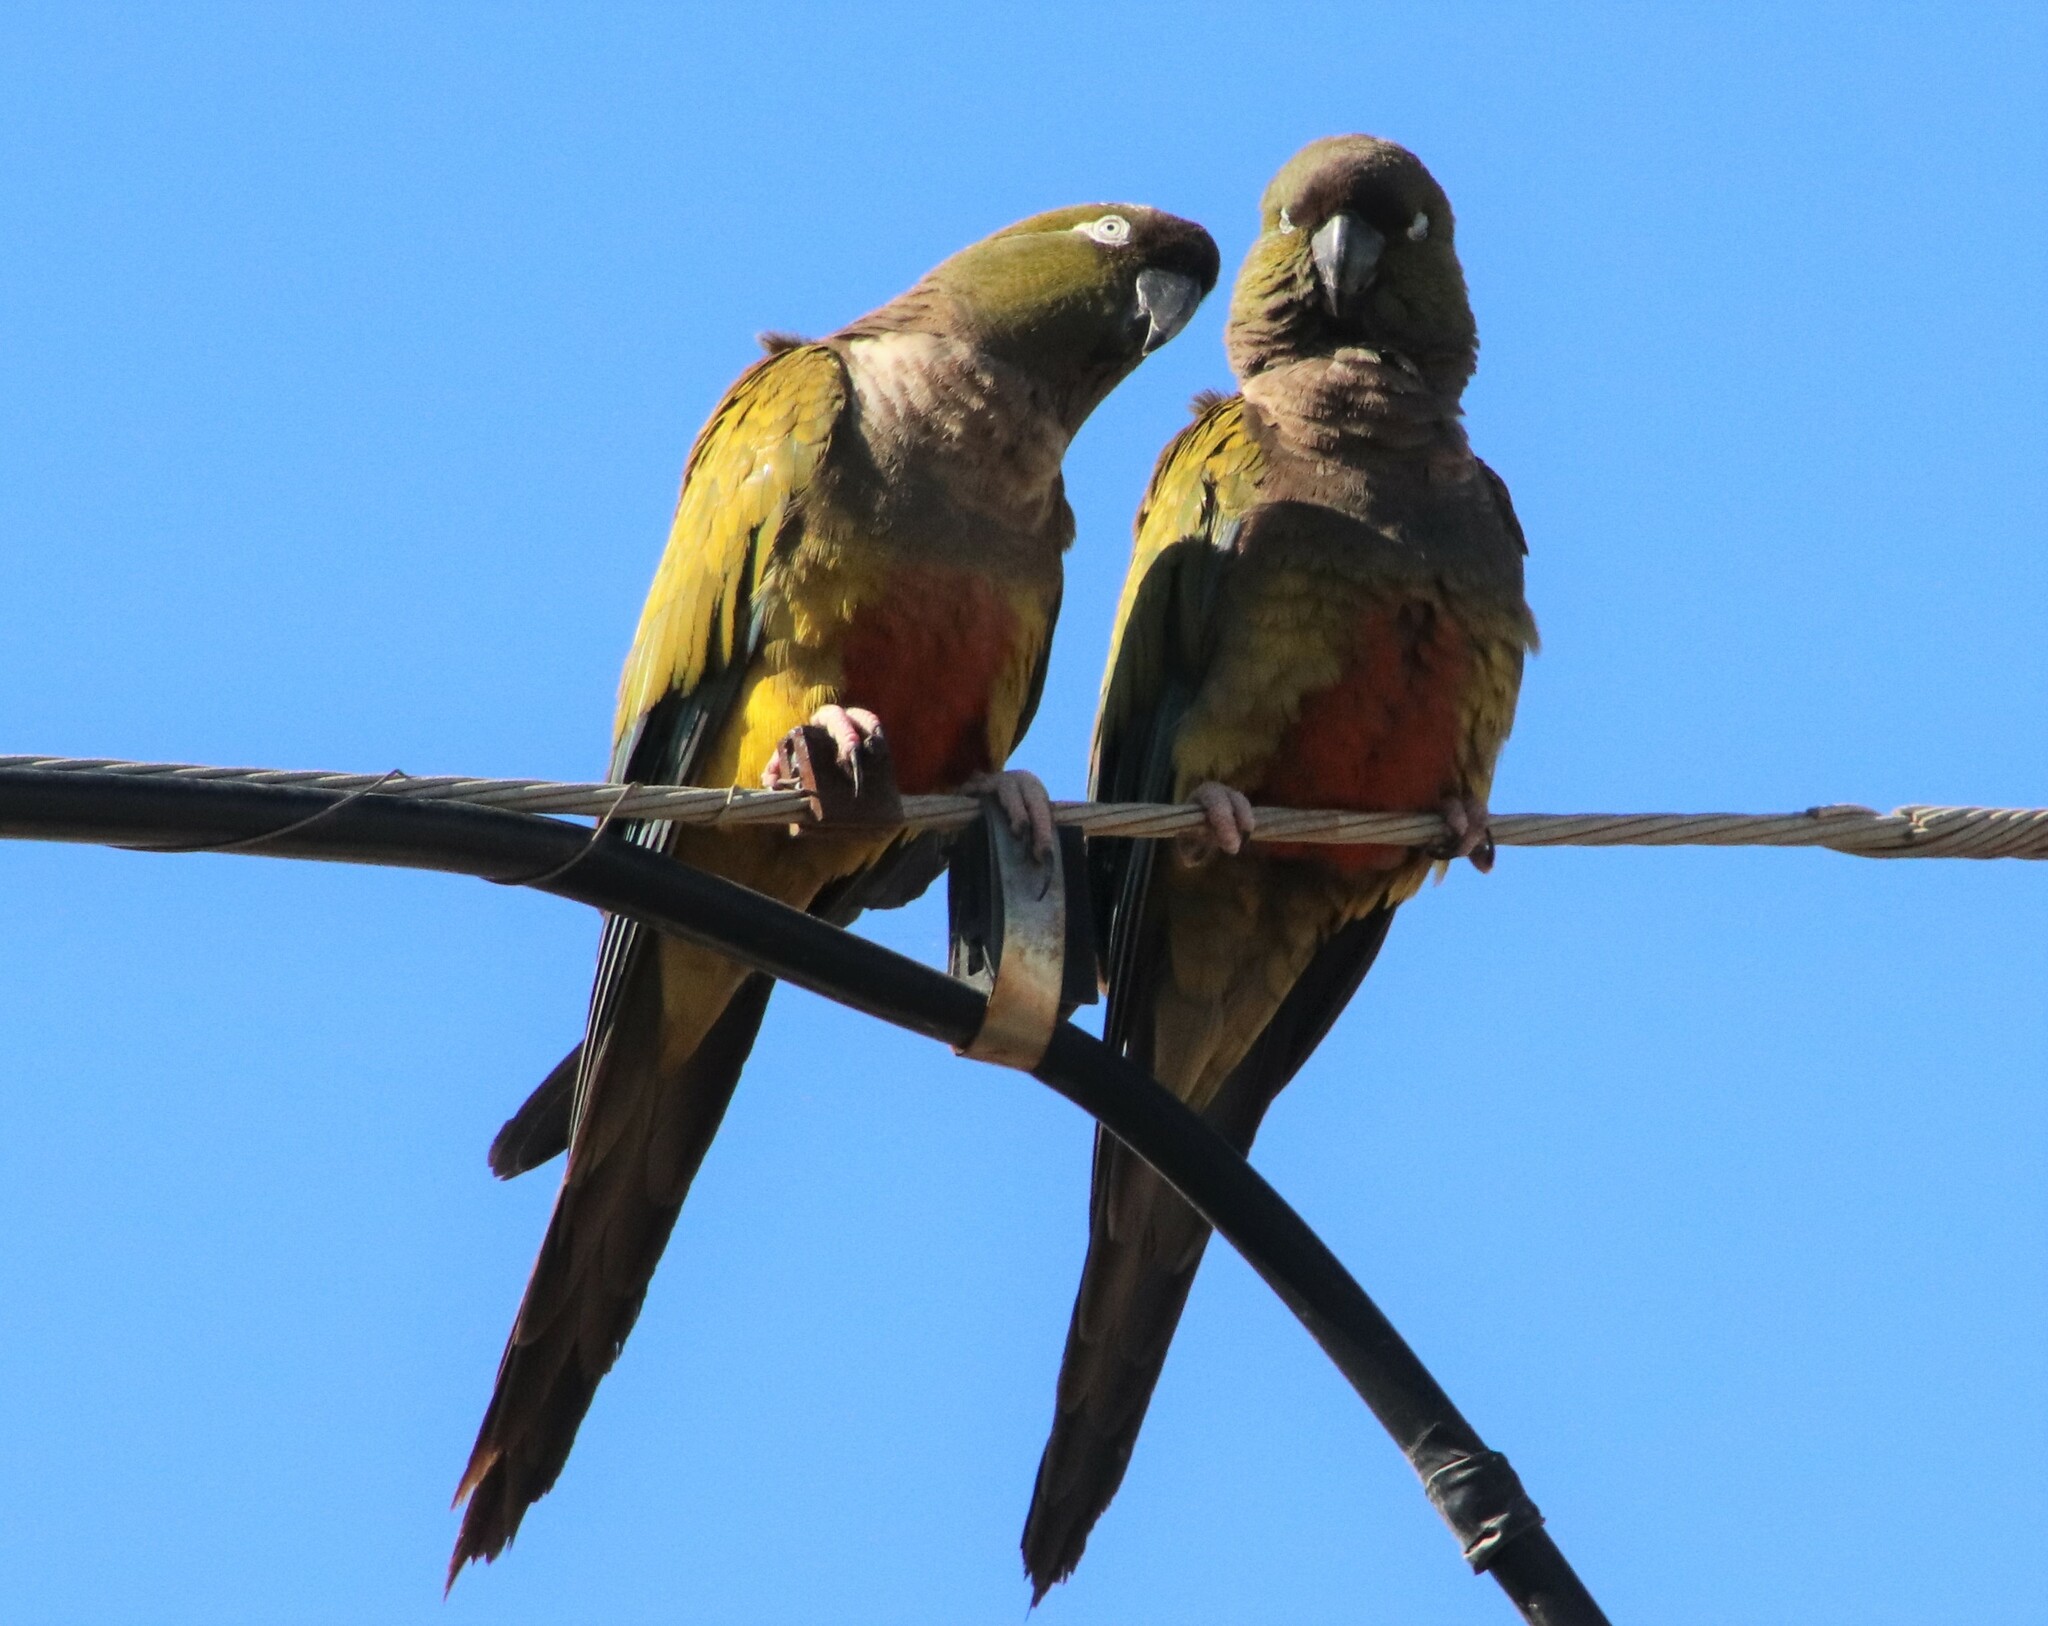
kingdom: Animalia
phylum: Chordata
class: Aves
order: Psittaciformes
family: Psittacidae
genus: Cyanoliseus
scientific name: Cyanoliseus patagonus
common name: Burrowing parrot
